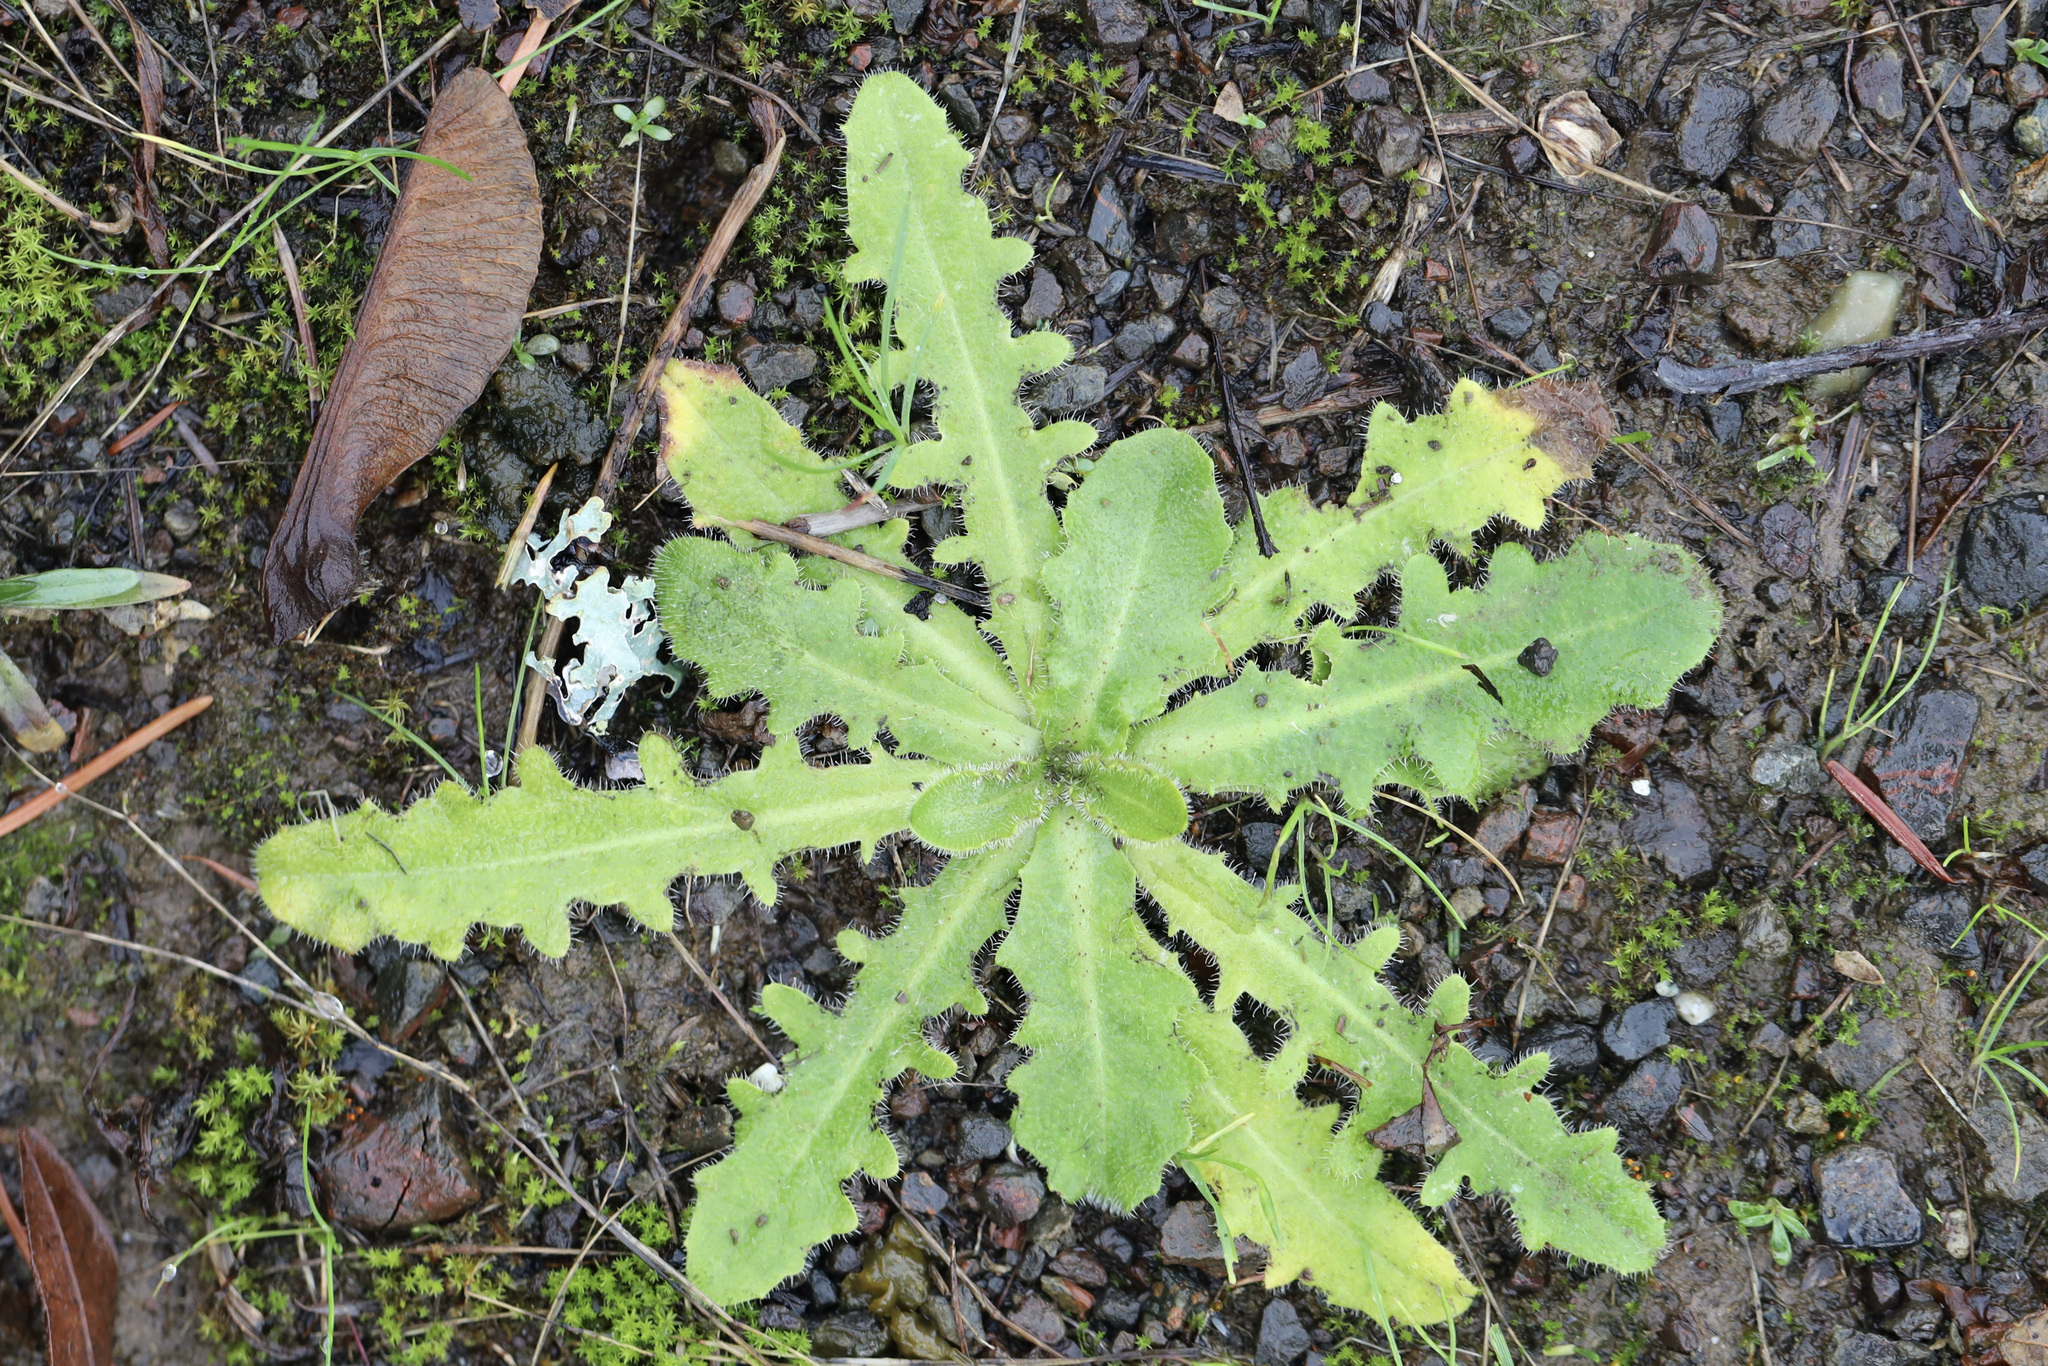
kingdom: Plantae
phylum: Tracheophyta
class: Magnoliopsida
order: Asterales
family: Asteraceae
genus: Hypochaeris
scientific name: Hypochaeris radicata
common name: Flatweed
